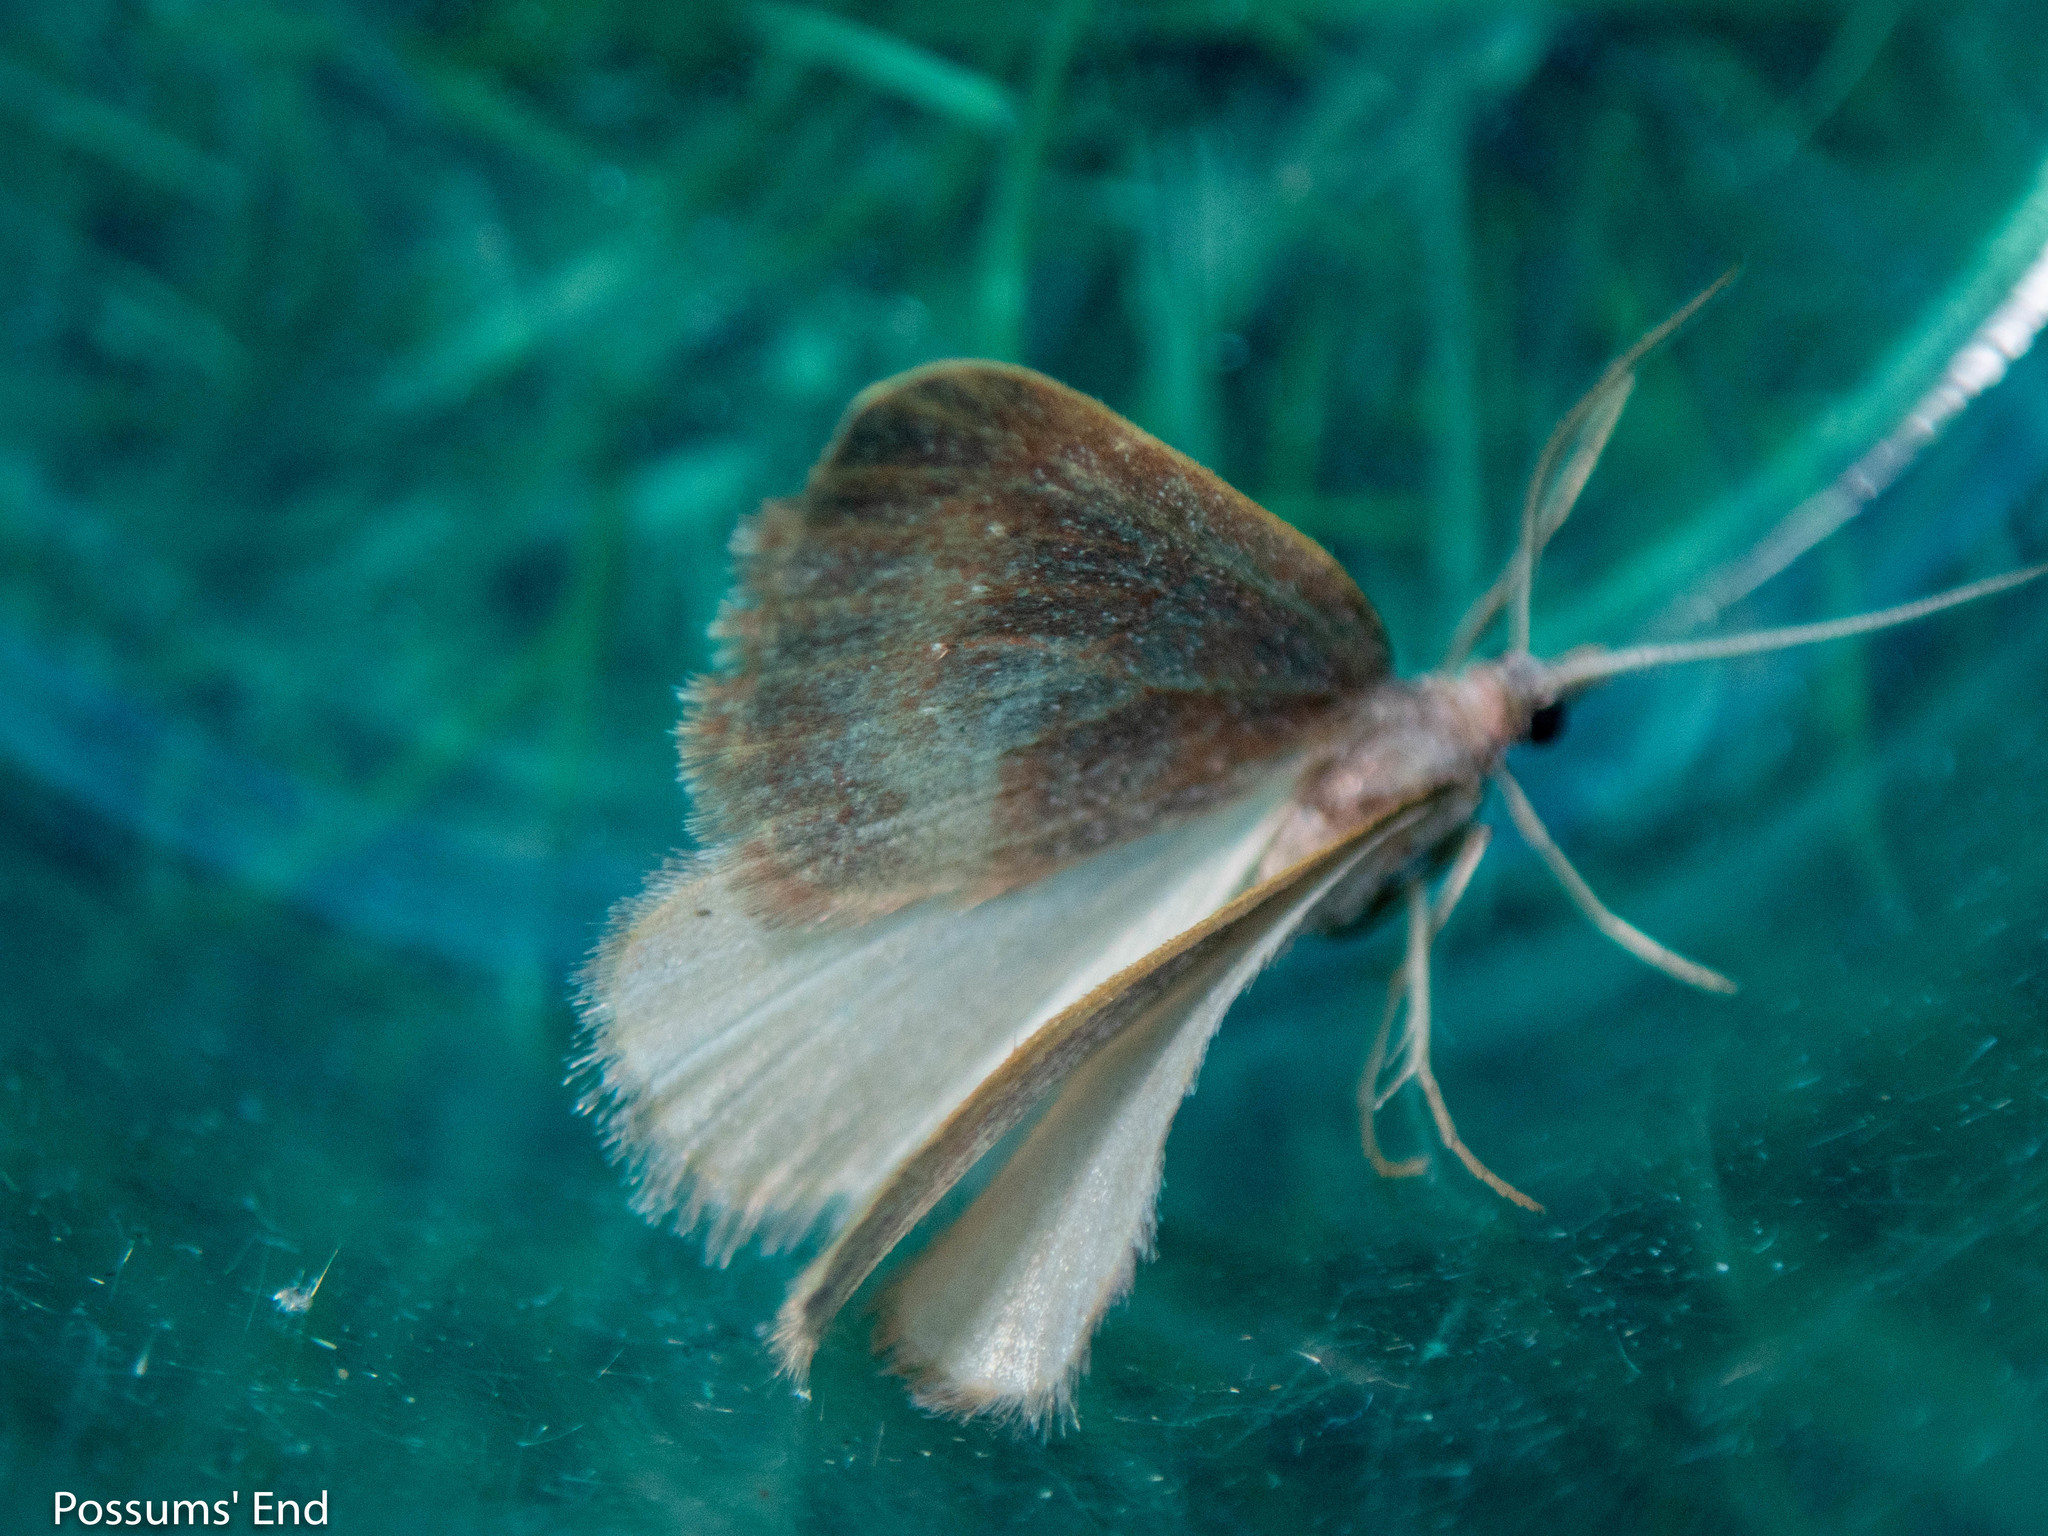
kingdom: Animalia
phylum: Arthropoda
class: Insecta
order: Lepidoptera
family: Geometridae
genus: Xanthorhoe
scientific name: Xanthorhoe occulta
